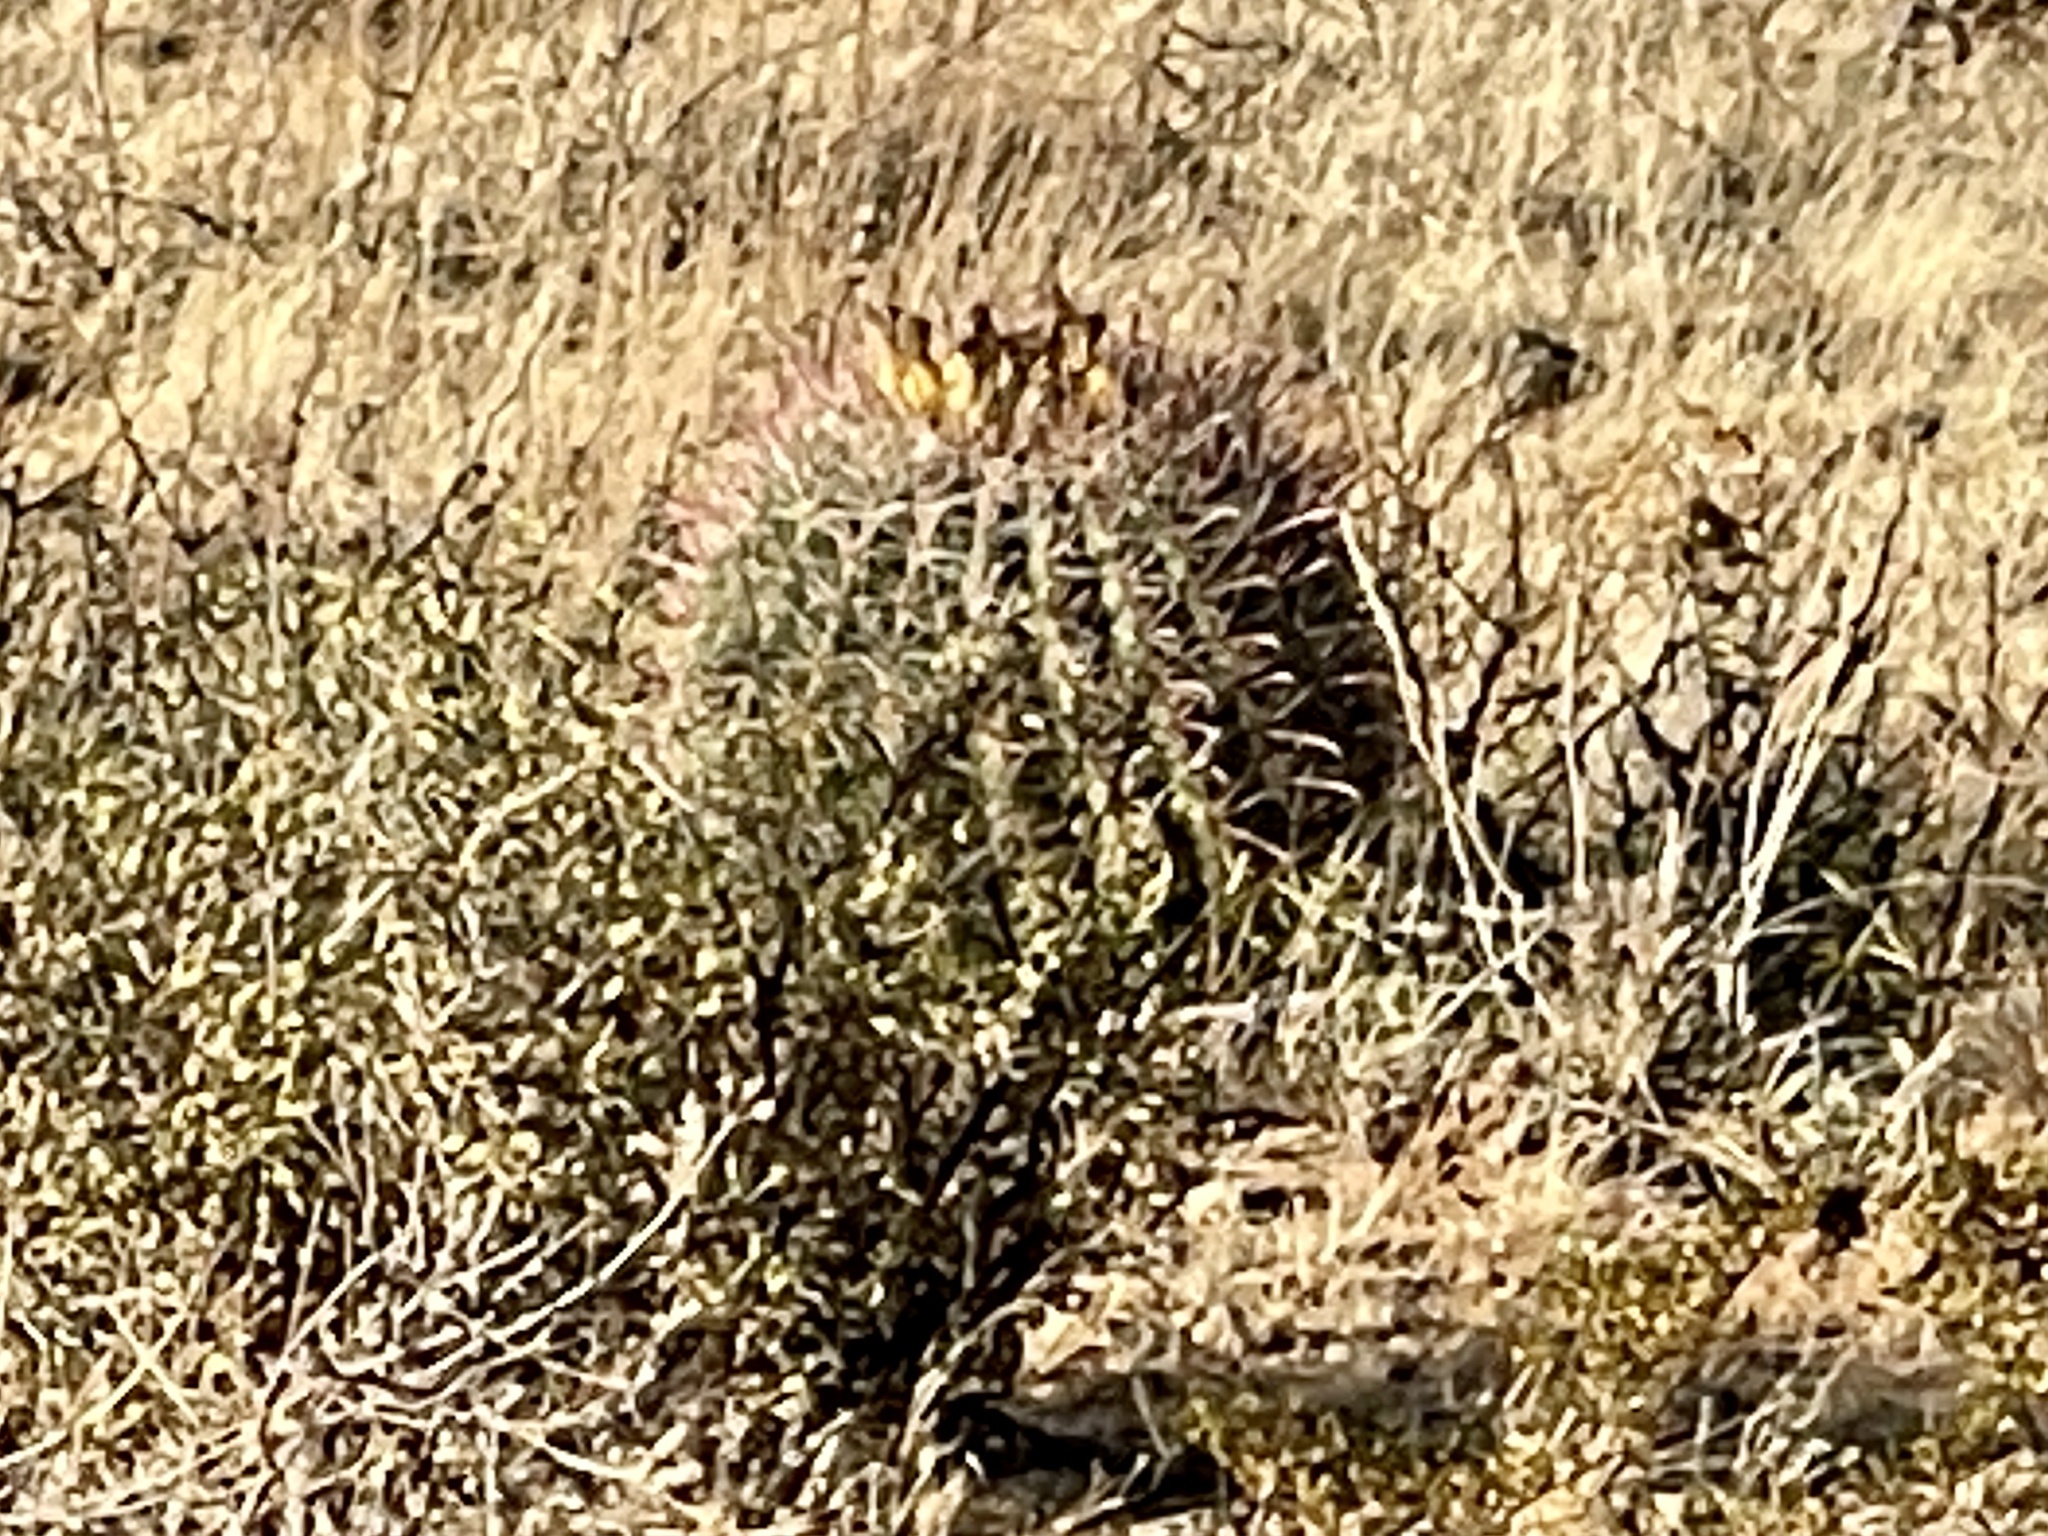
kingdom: Plantae
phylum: Tracheophyta
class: Magnoliopsida
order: Caryophyllales
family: Cactaceae
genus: Ferocactus
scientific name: Ferocactus wislizeni
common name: Candy barrel cactus
